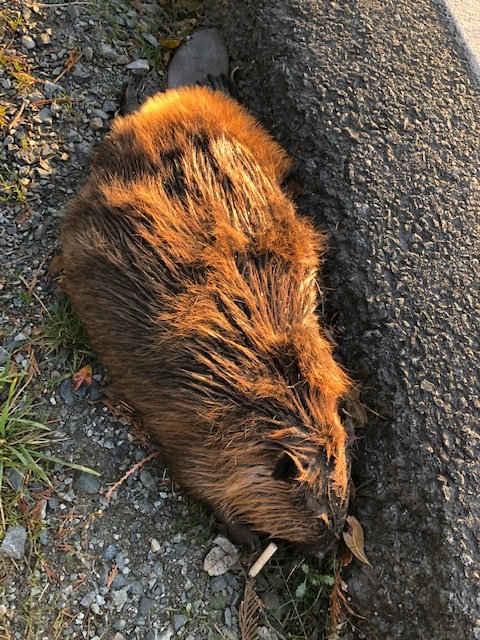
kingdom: Animalia
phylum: Chordata
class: Mammalia
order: Rodentia
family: Castoridae
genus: Castor
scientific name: Castor canadensis
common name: American beaver
